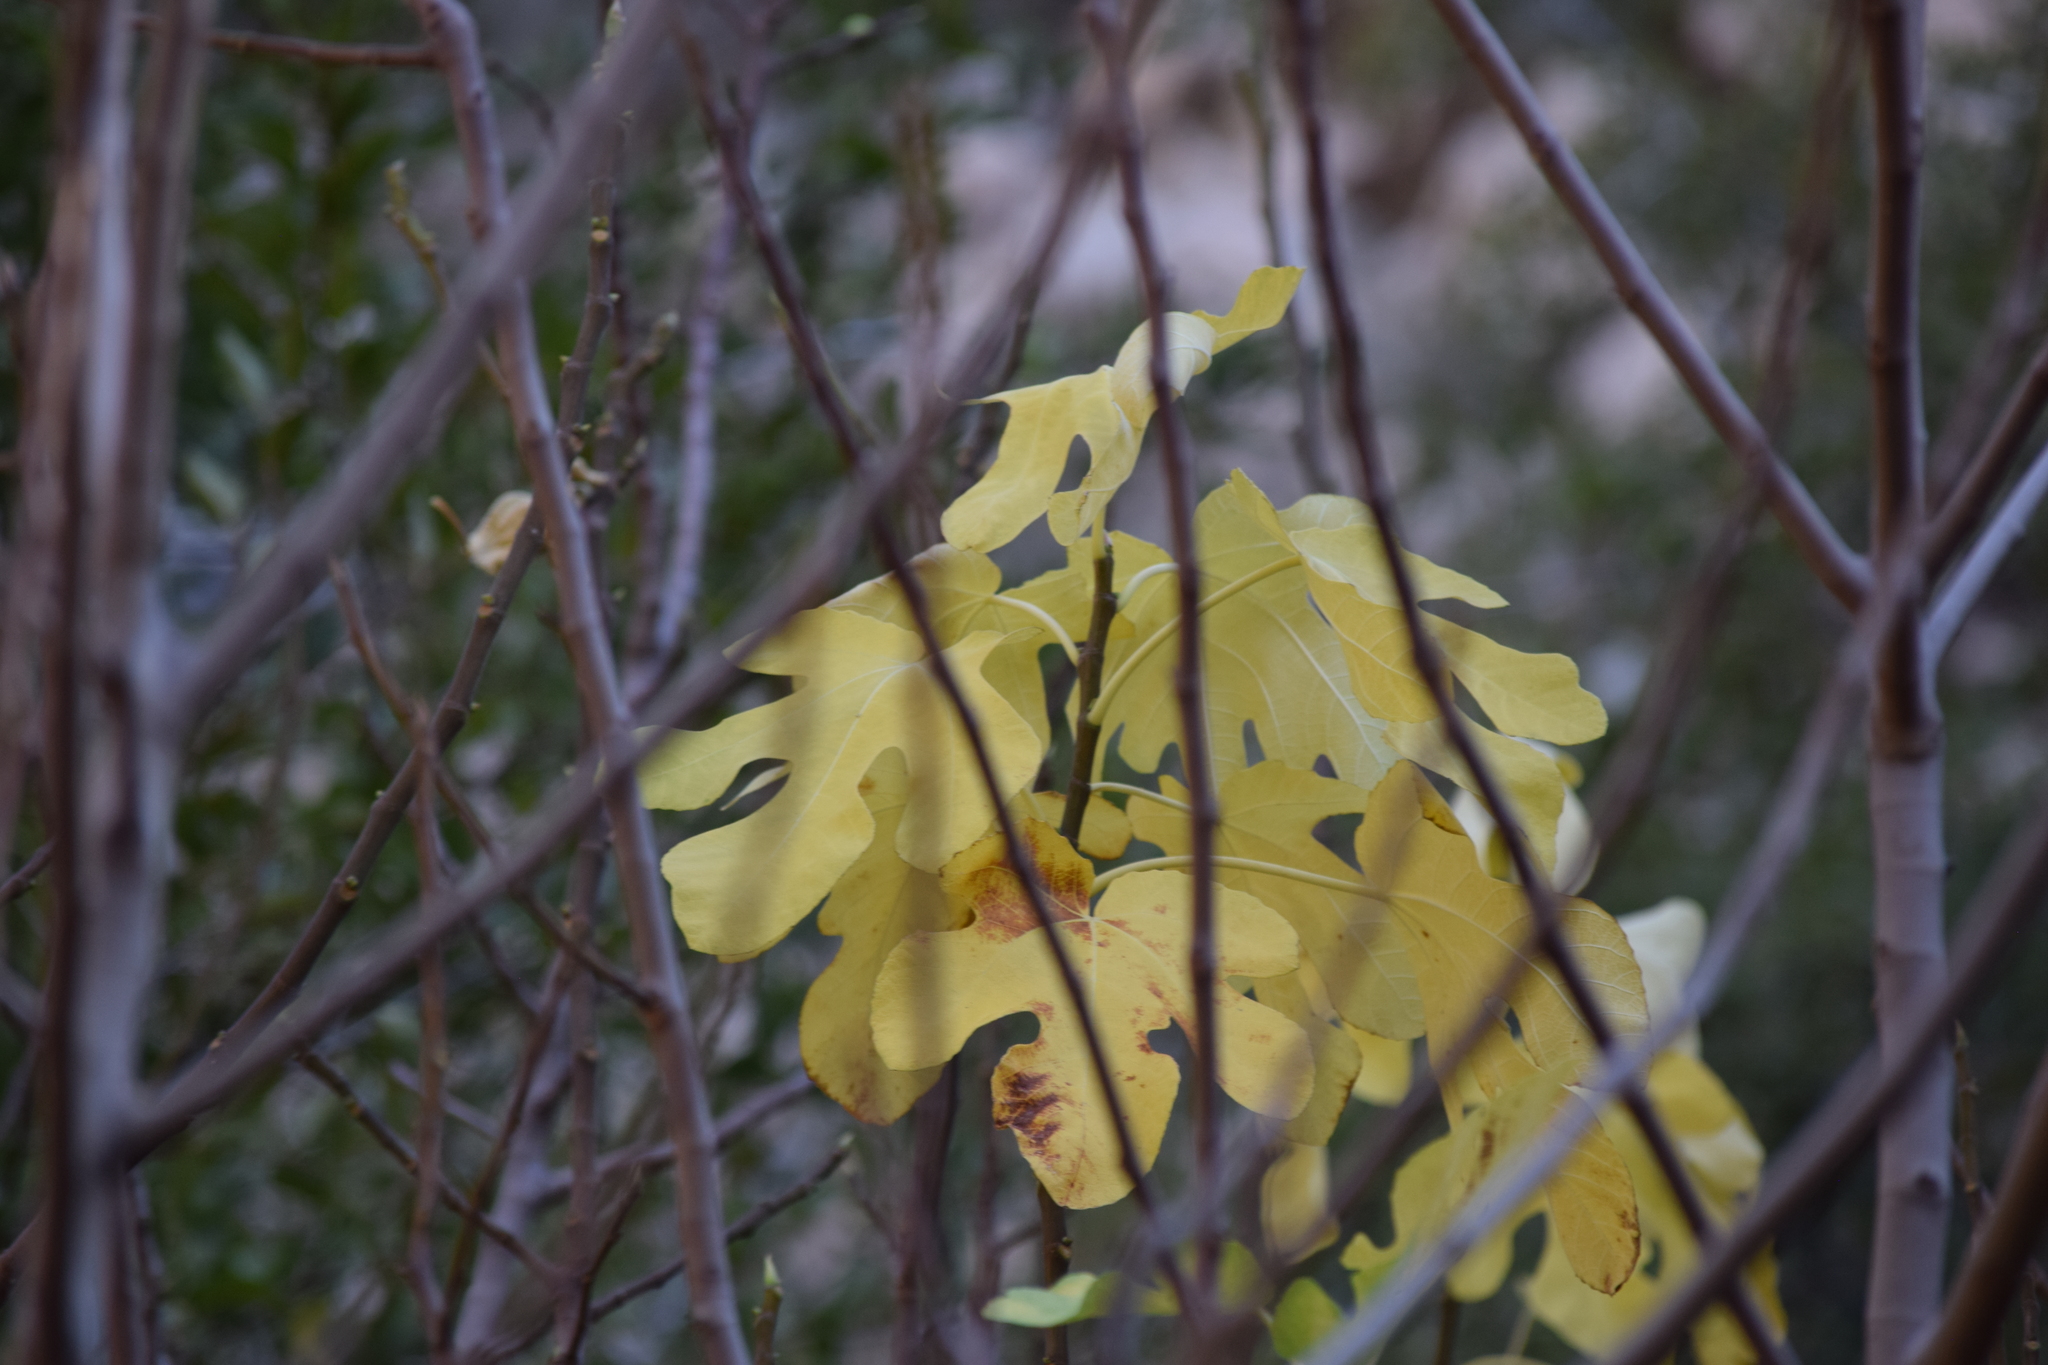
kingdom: Plantae
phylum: Tracheophyta
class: Magnoliopsida
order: Rosales
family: Moraceae
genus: Ficus
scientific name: Ficus carica
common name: Fig
